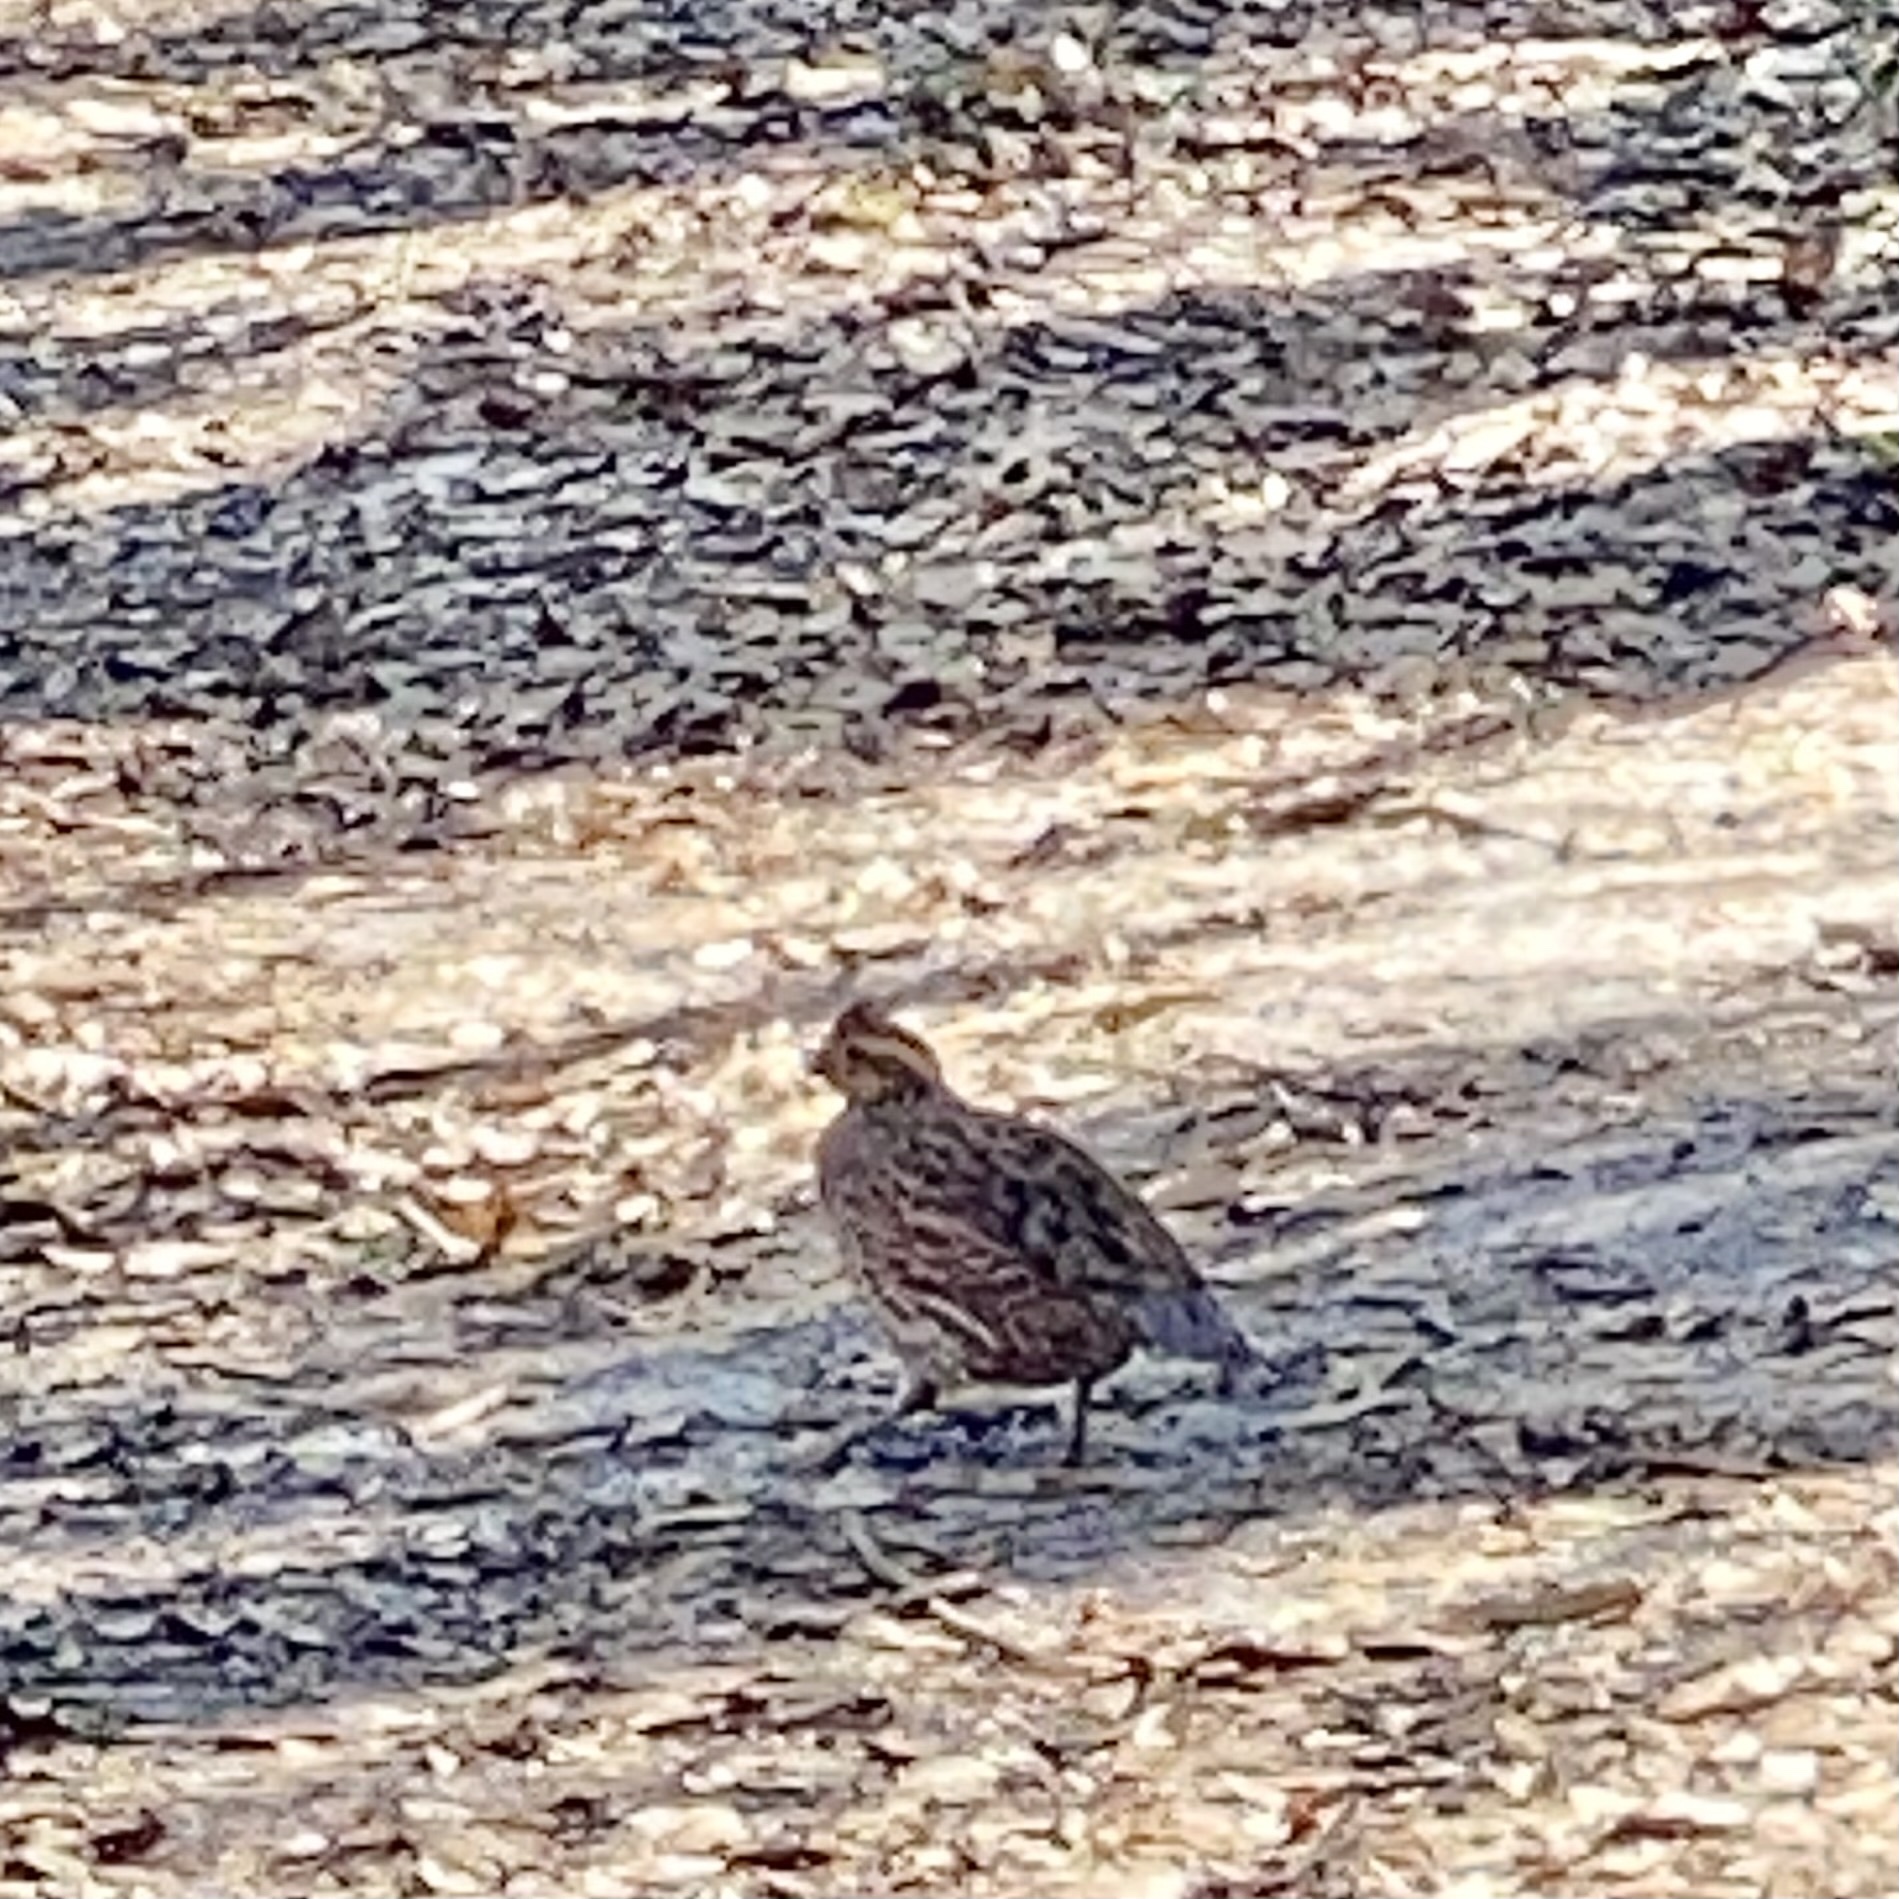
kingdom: Animalia
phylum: Chordata
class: Aves
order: Galliformes
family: Odontophoridae
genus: Colinus
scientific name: Colinus virginianus
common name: Northern bobwhite
